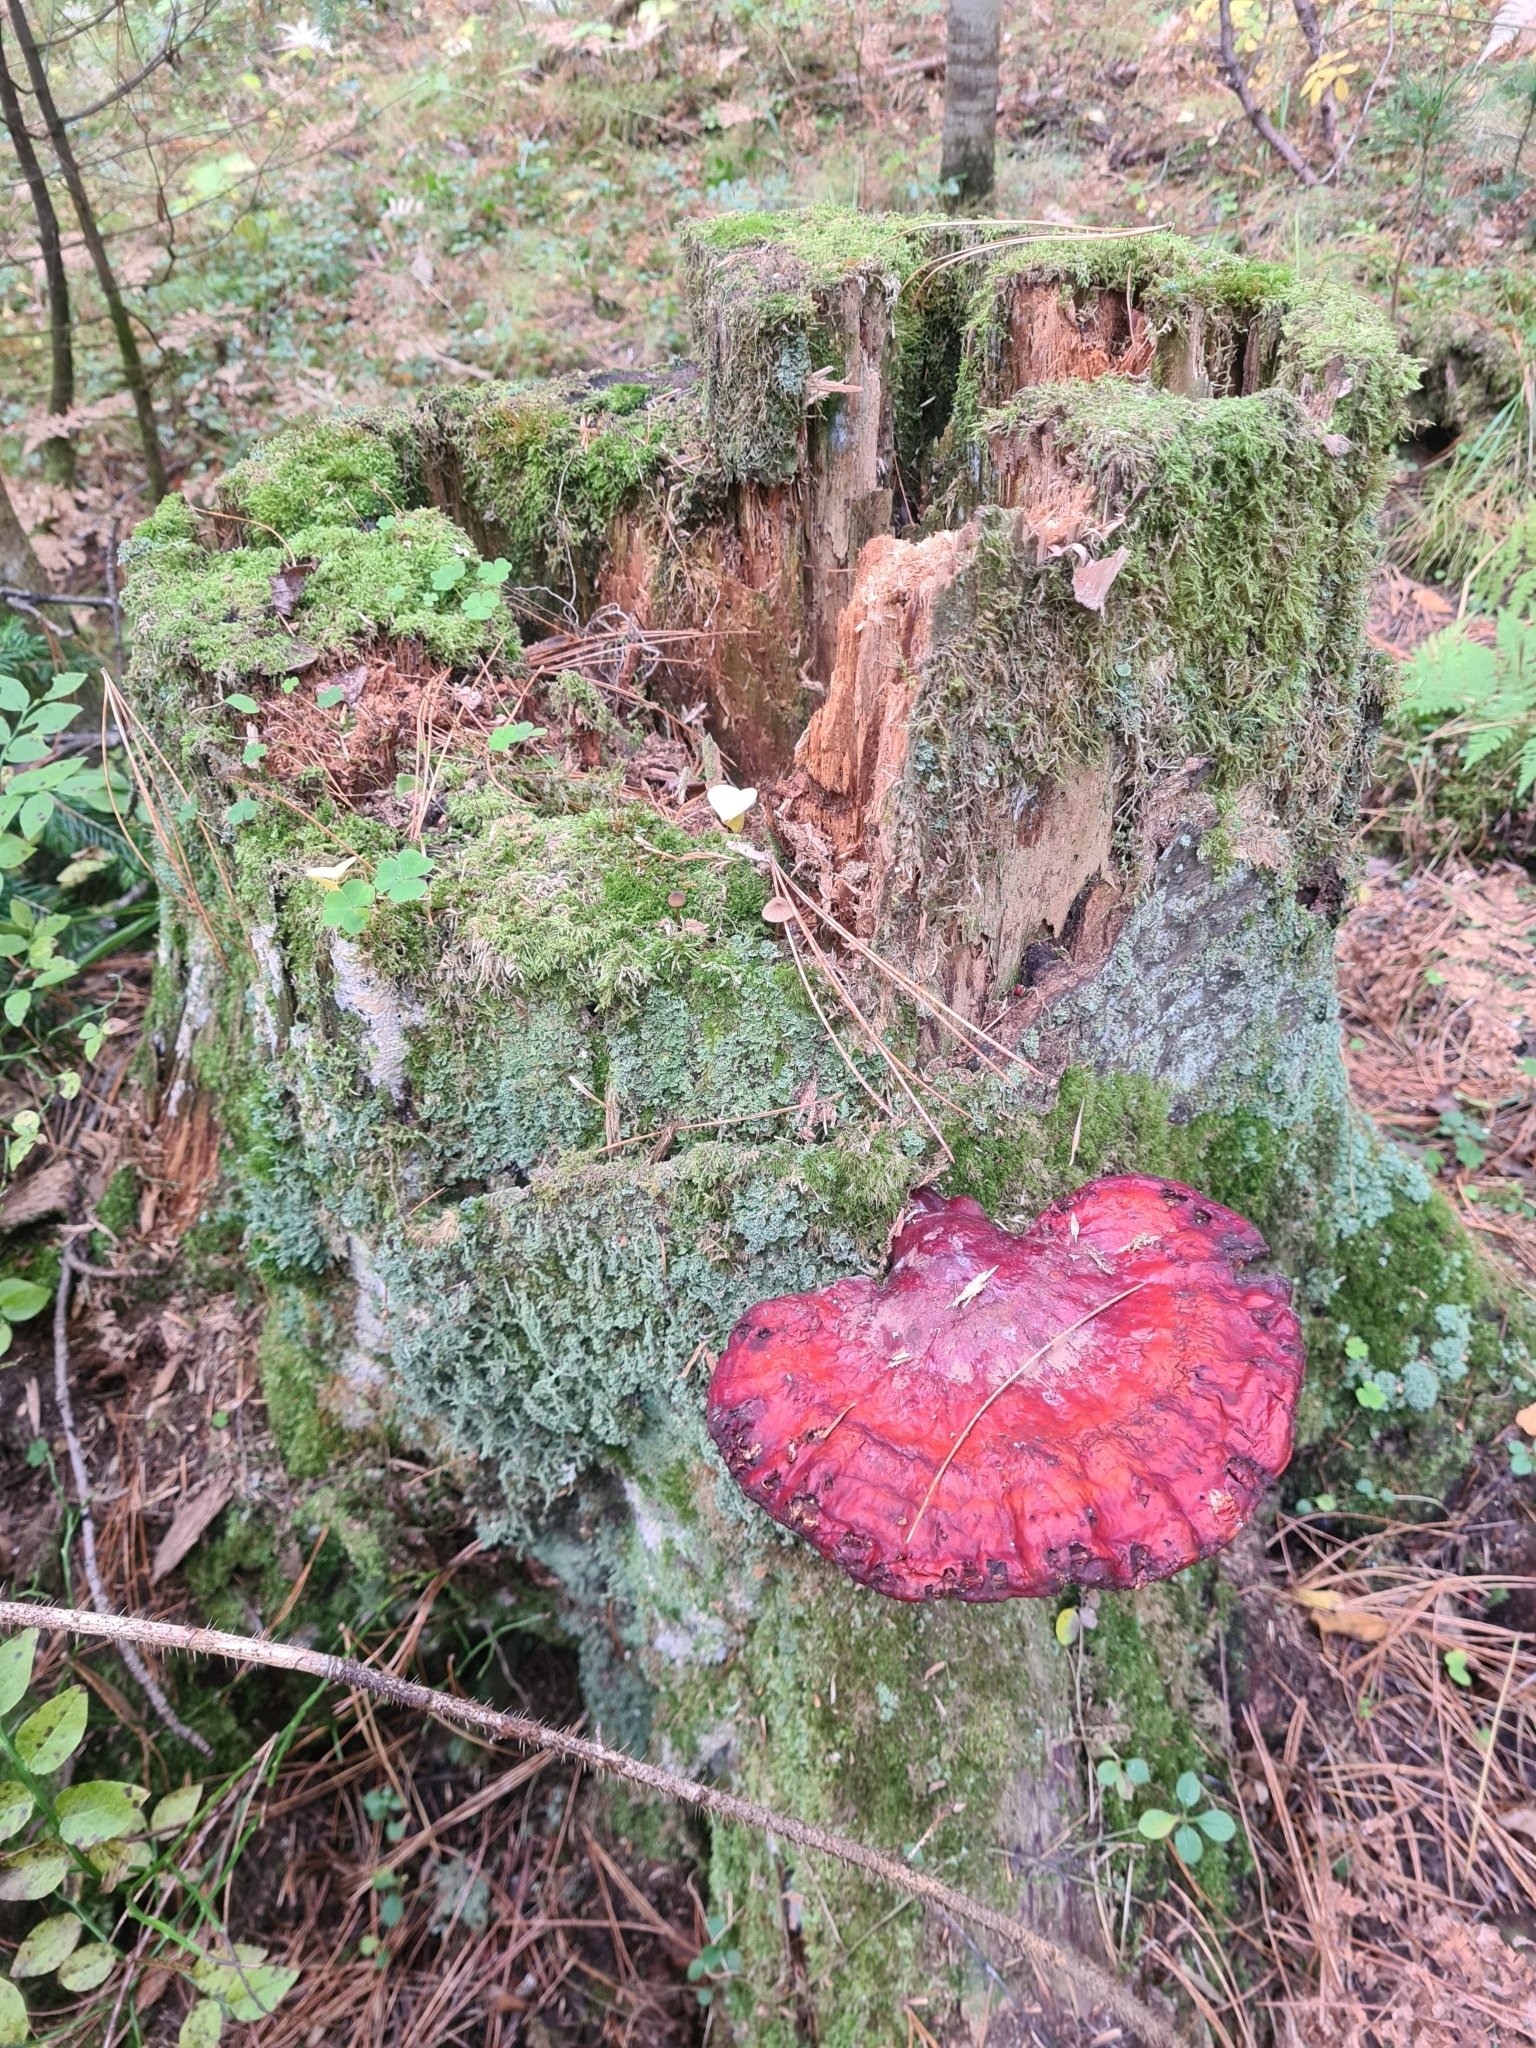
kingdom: Fungi
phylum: Basidiomycota
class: Agaricomycetes
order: Polyporales
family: Polyporaceae
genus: Ganoderma
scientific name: Ganoderma lucidum
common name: Lacquered bracket
